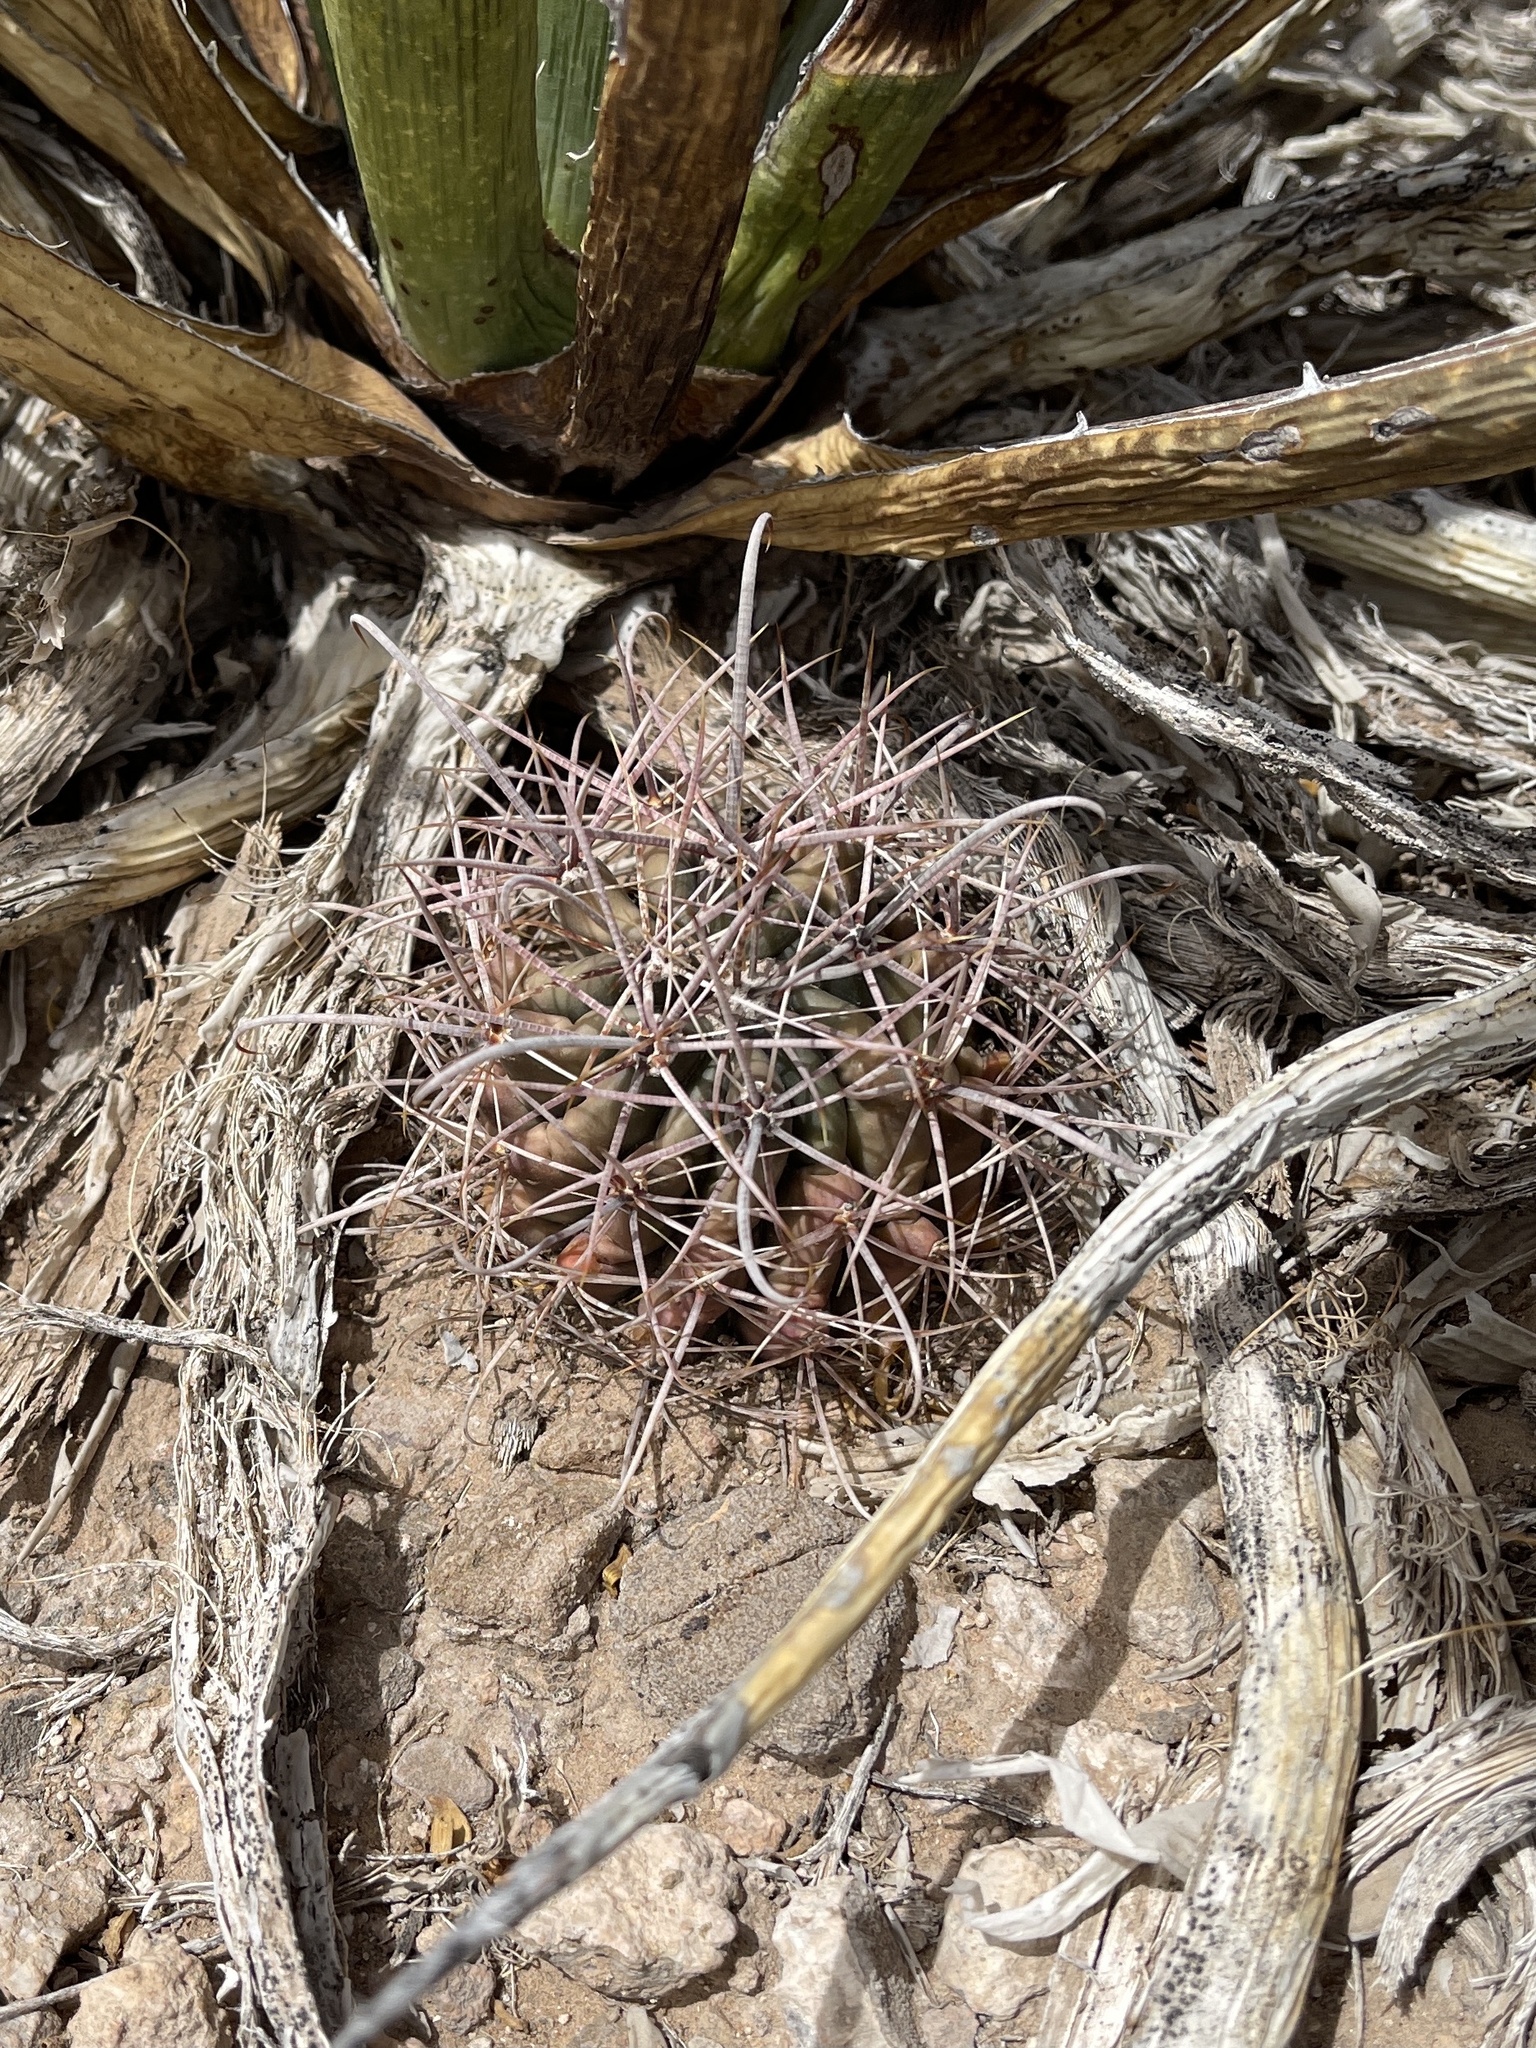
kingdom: Plantae
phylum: Tracheophyta
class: Magnoliopsida
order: Caryophyllales
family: Cactaceae
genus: Echinocactus
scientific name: Echinocactus horizonthalonius
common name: Devilshead
